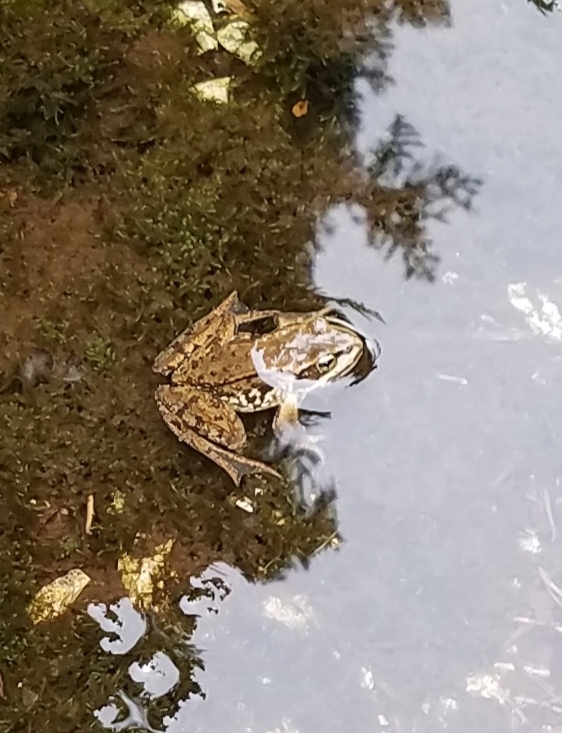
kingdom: Animalia
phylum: Chordata
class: Amphibia
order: Anura
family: Ranidae
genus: Rana
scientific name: Rana cascadae
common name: Cascades frog
